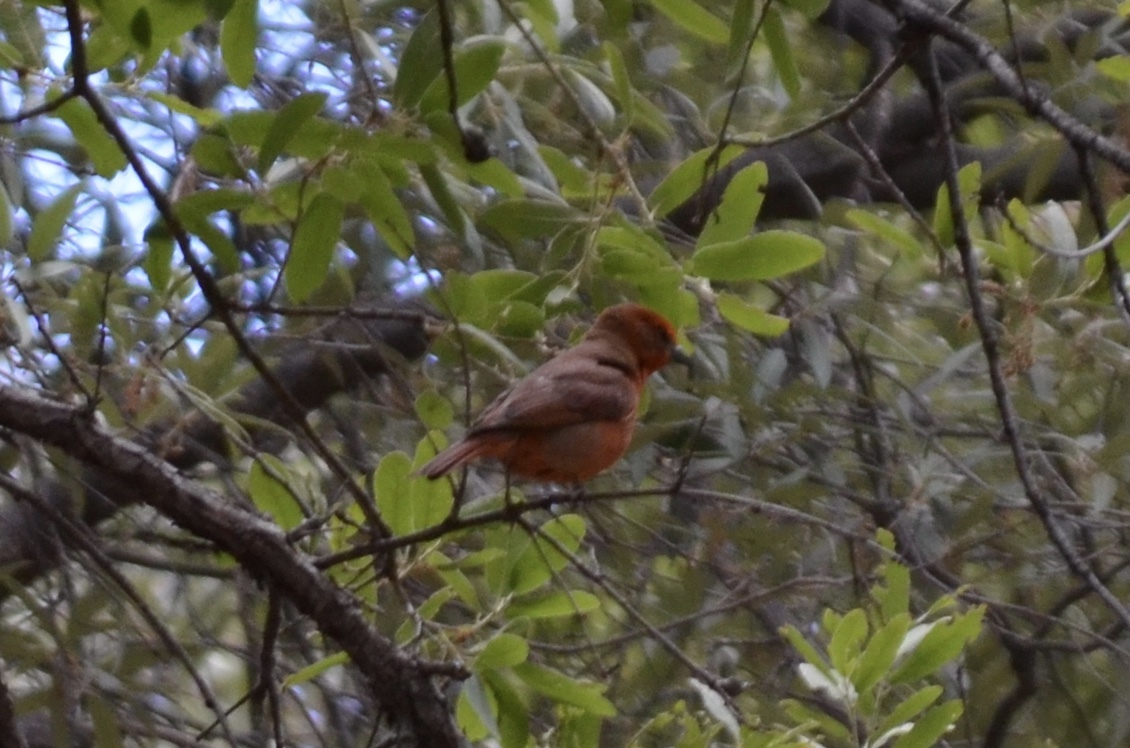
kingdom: Animalia
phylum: Chordata
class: Aves
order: Passeriformes
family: Cardinalidae
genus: Piranga
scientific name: Piranga flava
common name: Red tanager
